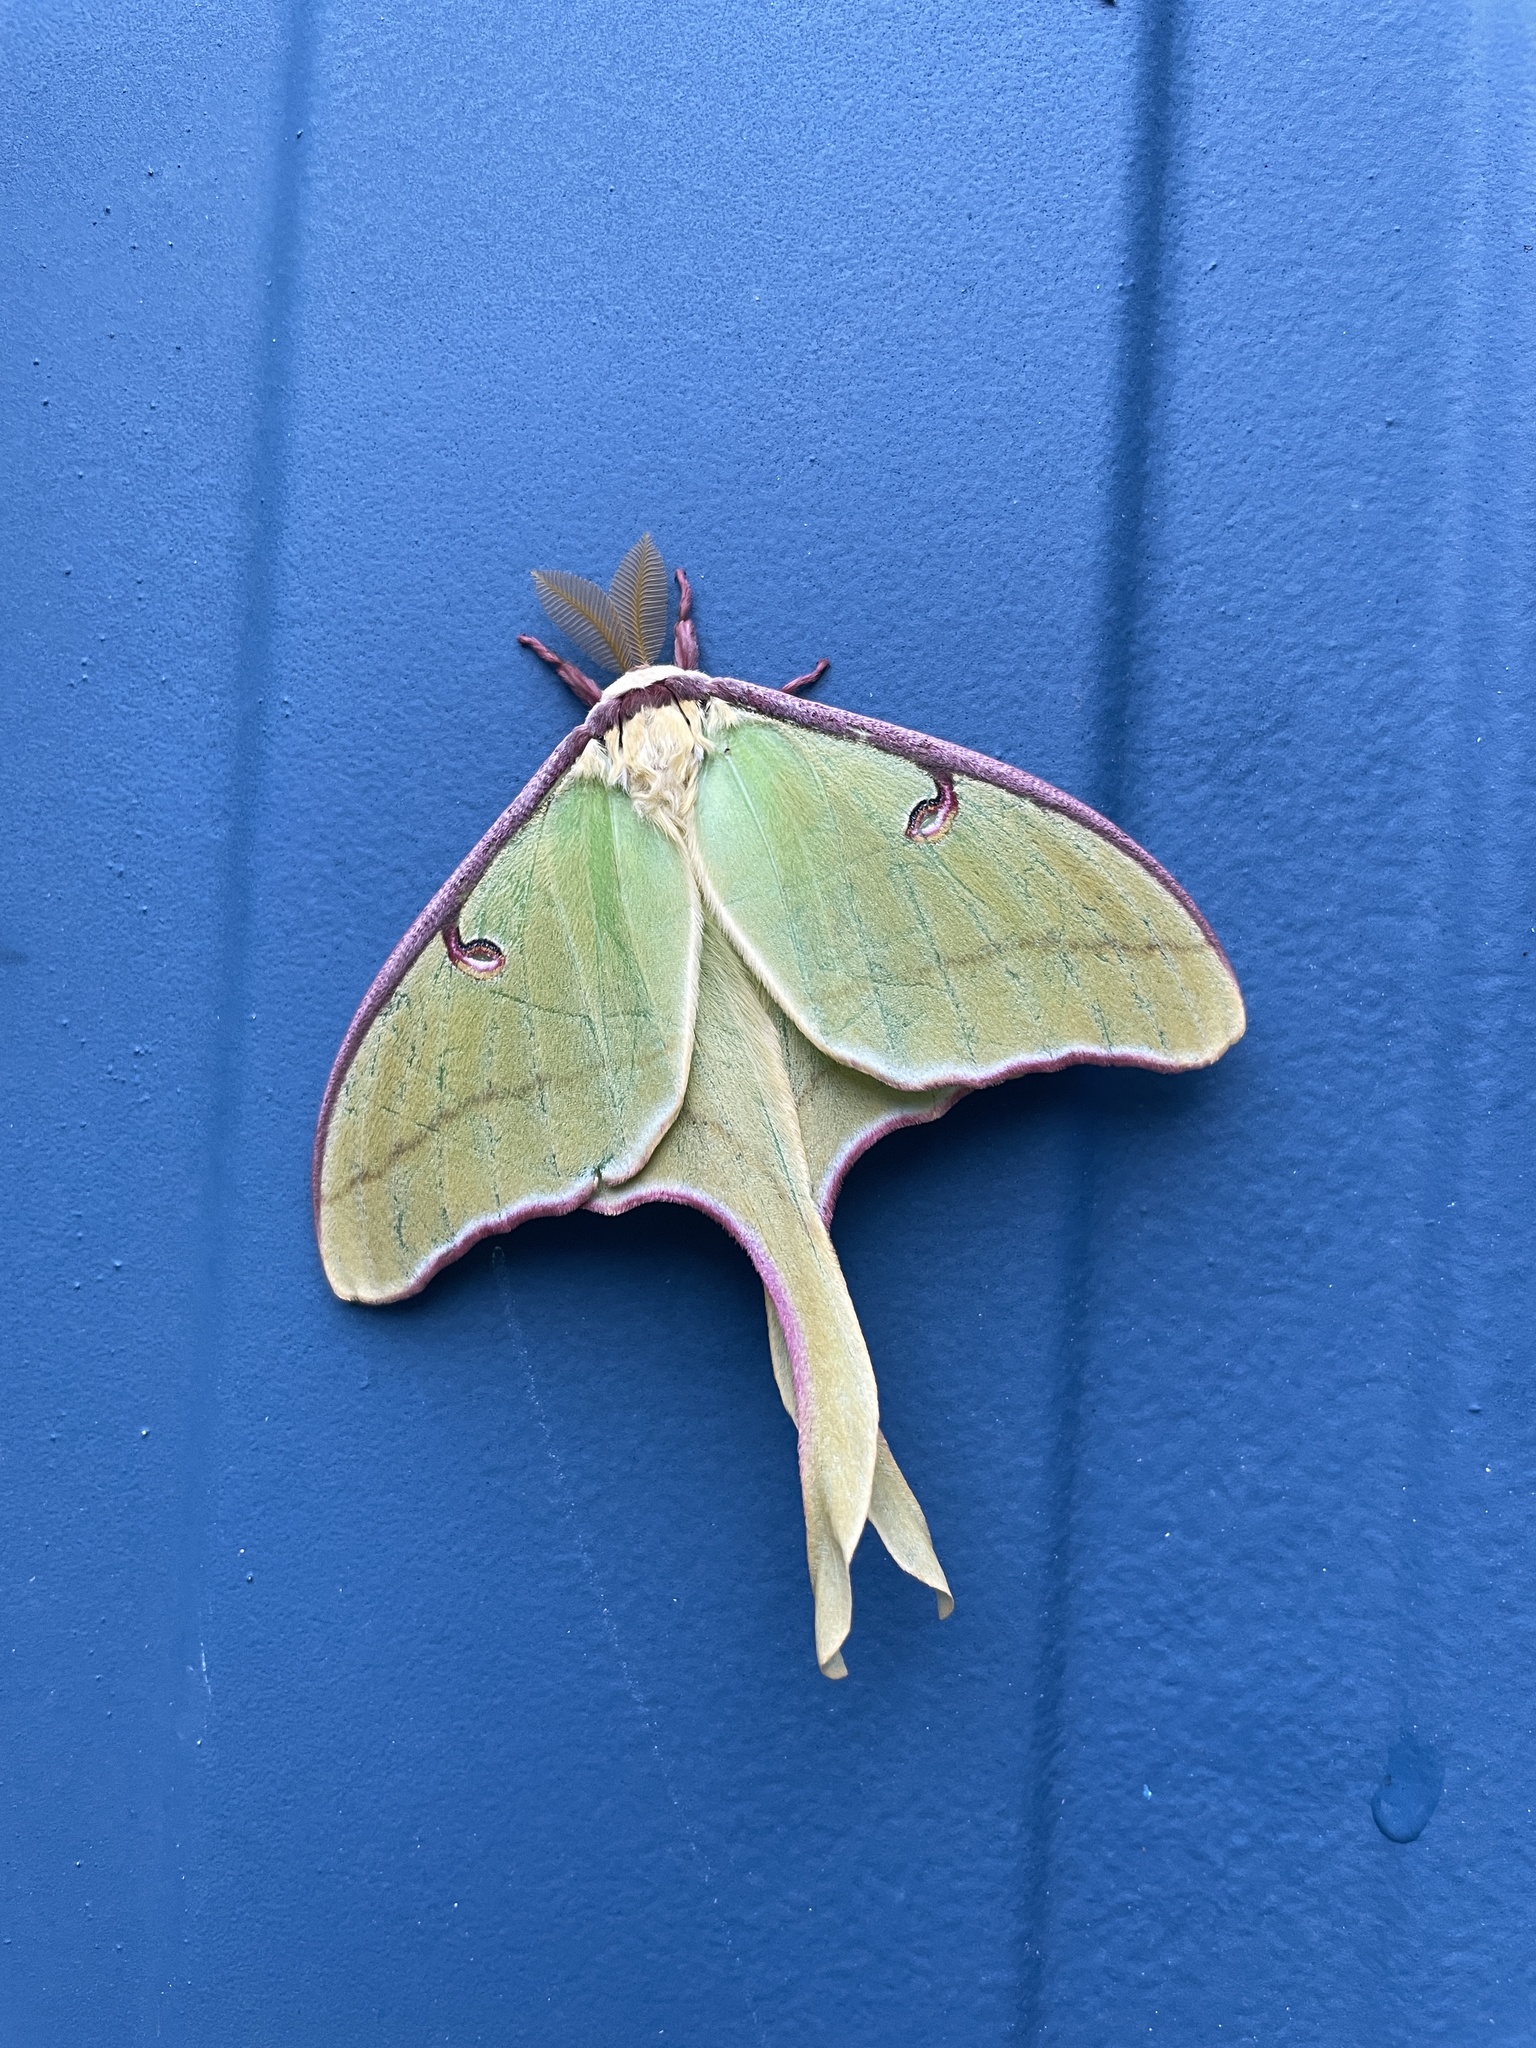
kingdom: Animalia
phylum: Arthropoda
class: Insecta
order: Lepidoptera
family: Saturniidae
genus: Actias
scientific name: Actias luna
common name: Luna moth
